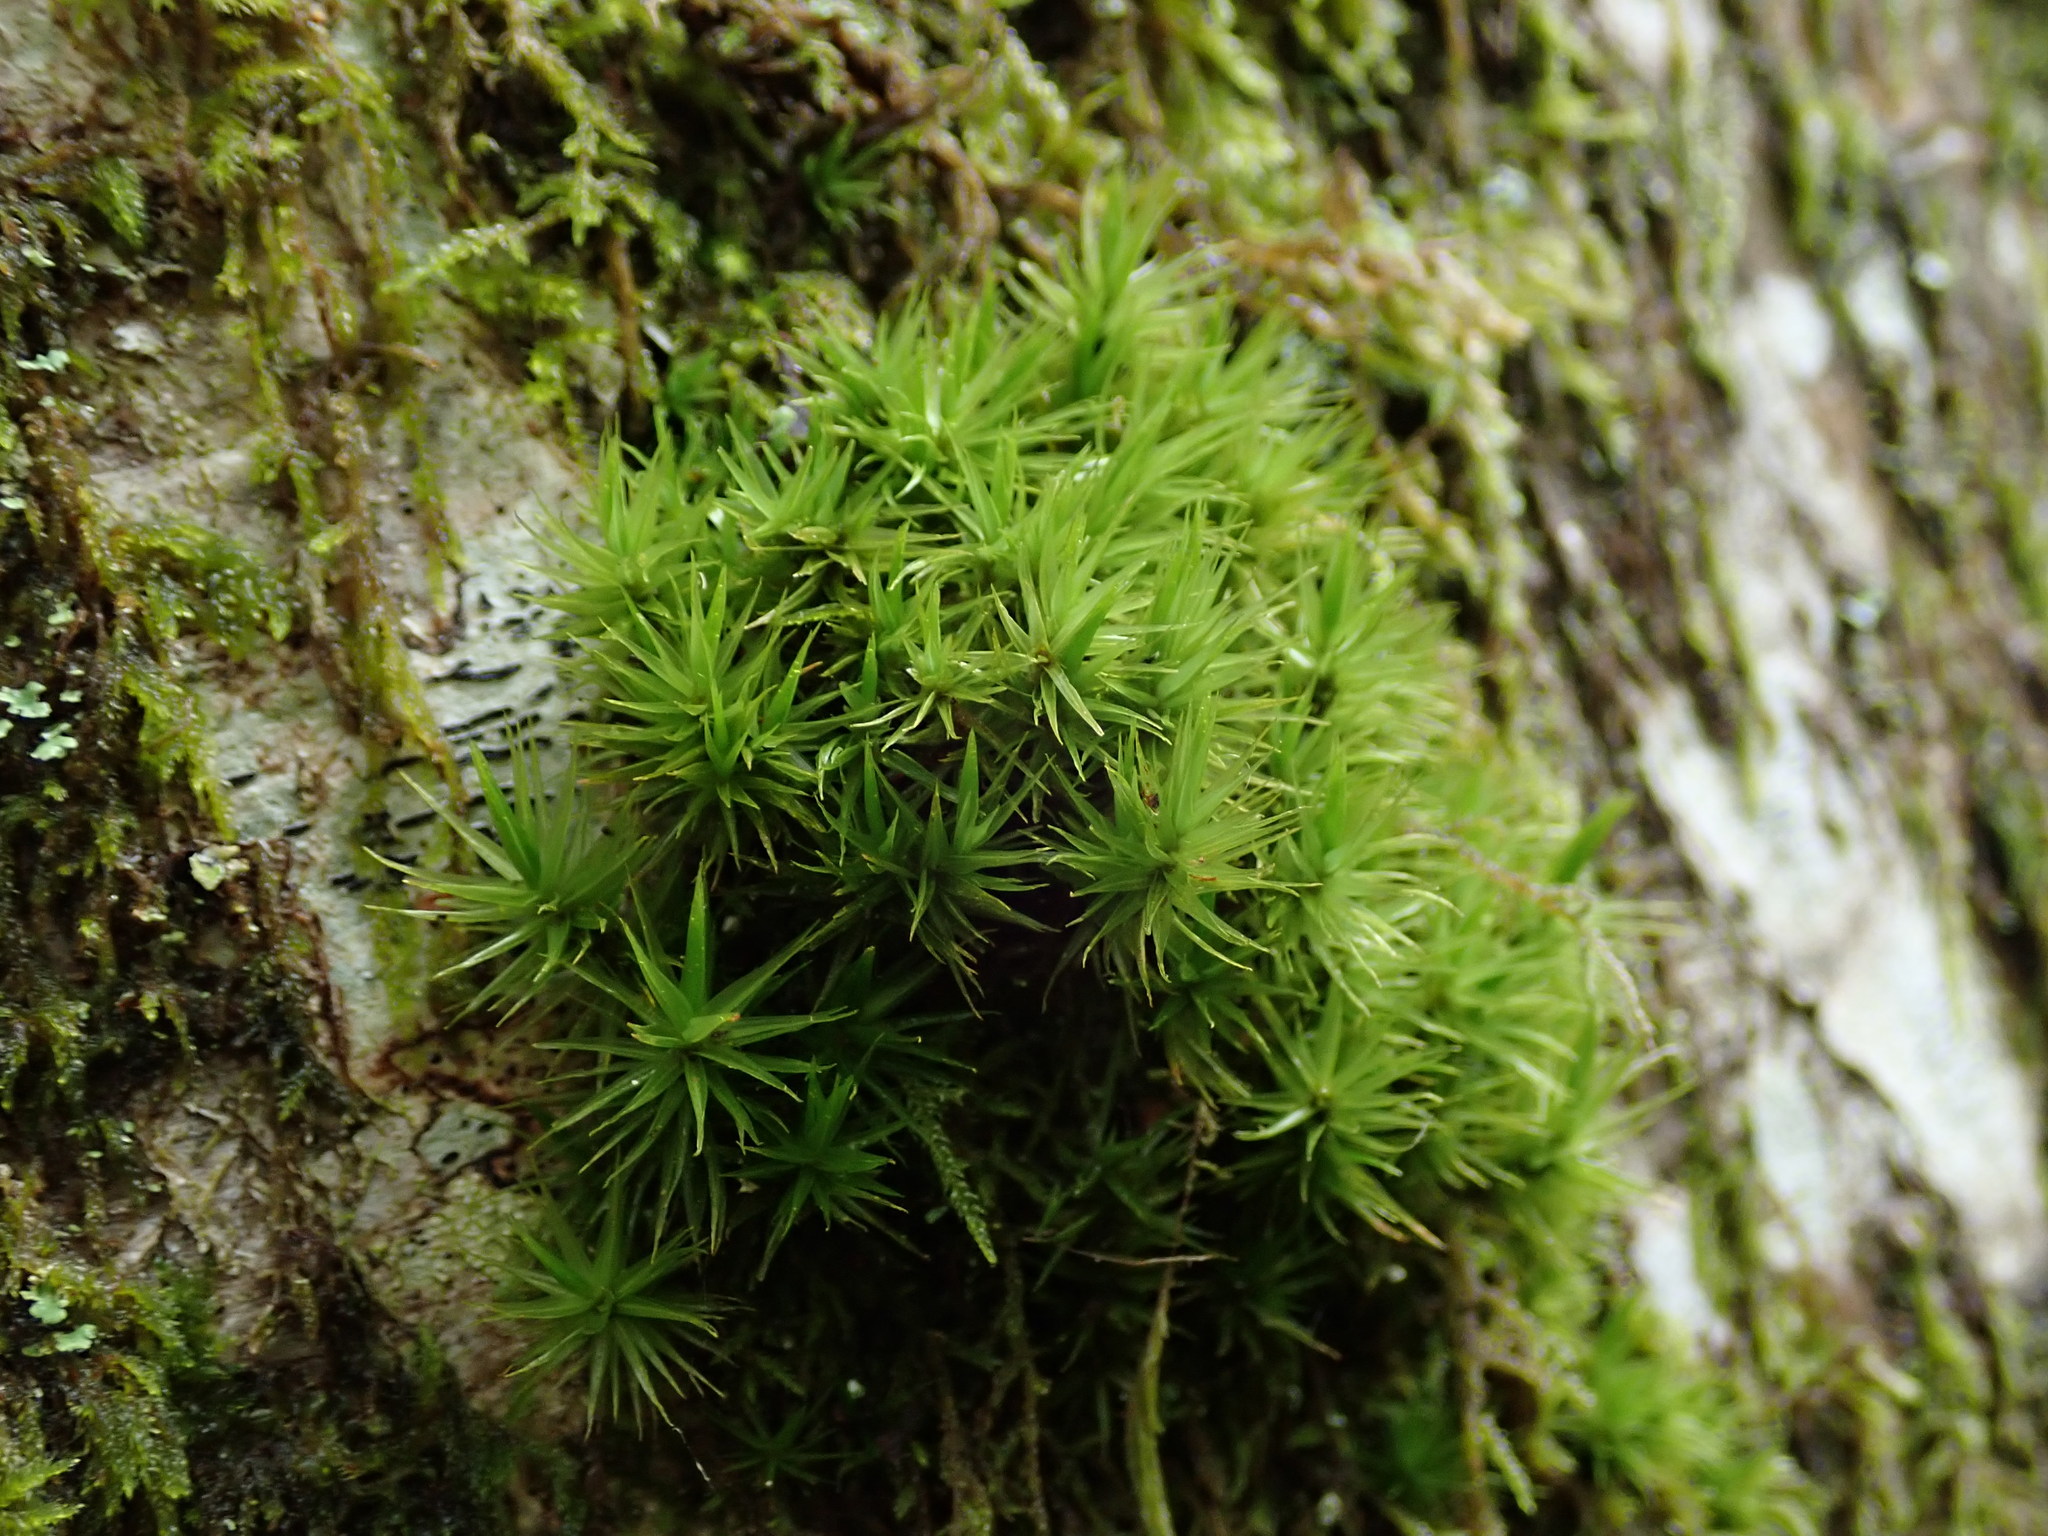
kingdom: Plantae
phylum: Bryophyta
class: Bryopsida
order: Dicranales
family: Dicranaceae
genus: Dicranum
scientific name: Dicranum scoparium
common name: Broom fork-moss
